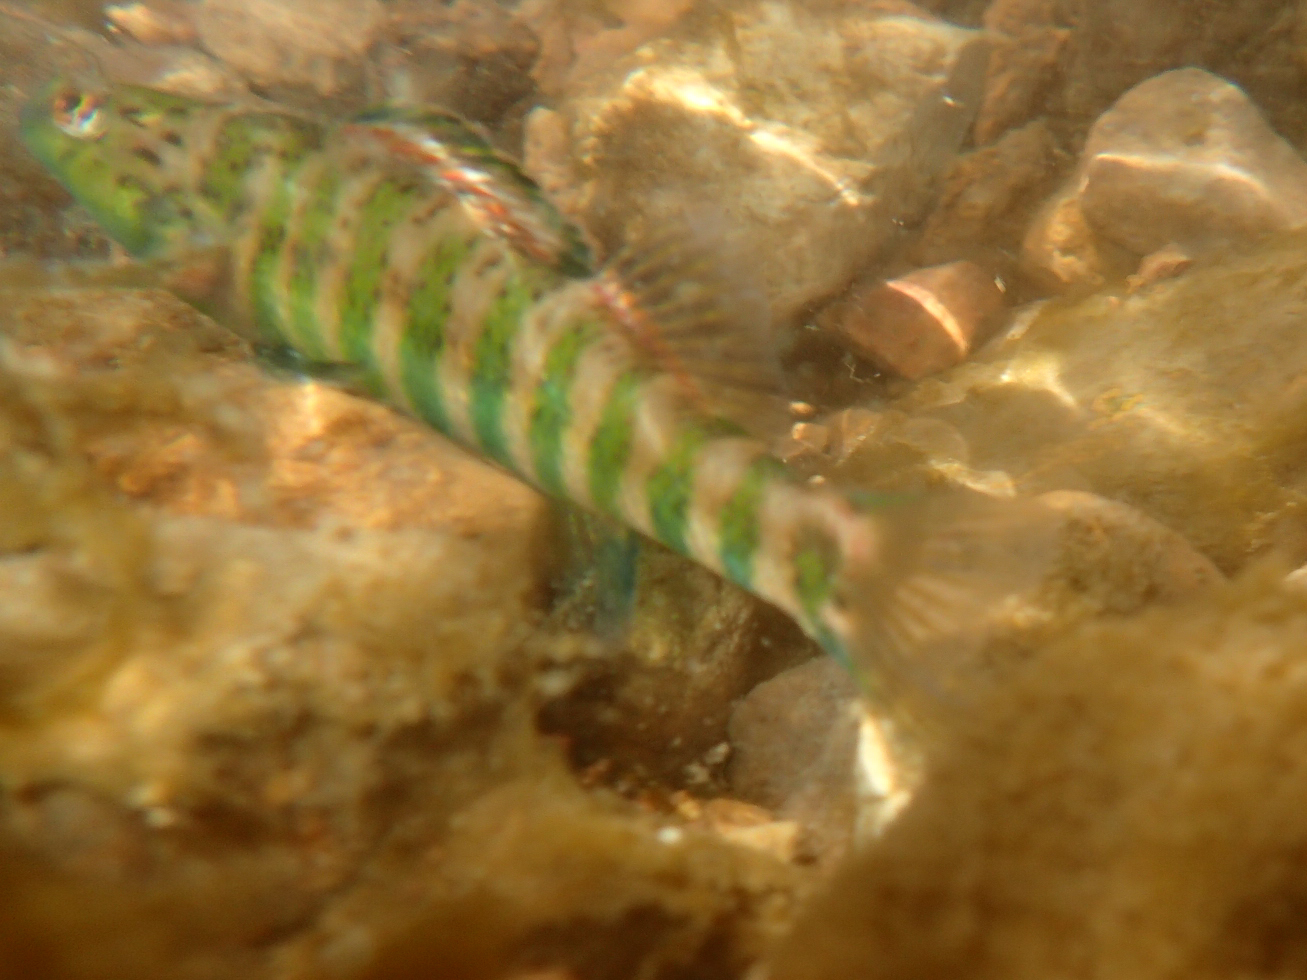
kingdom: Animalia
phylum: Chordata
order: Perciformes
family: Percidae
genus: Etheostoma
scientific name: Etheostoma zonale
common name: Banded darter
